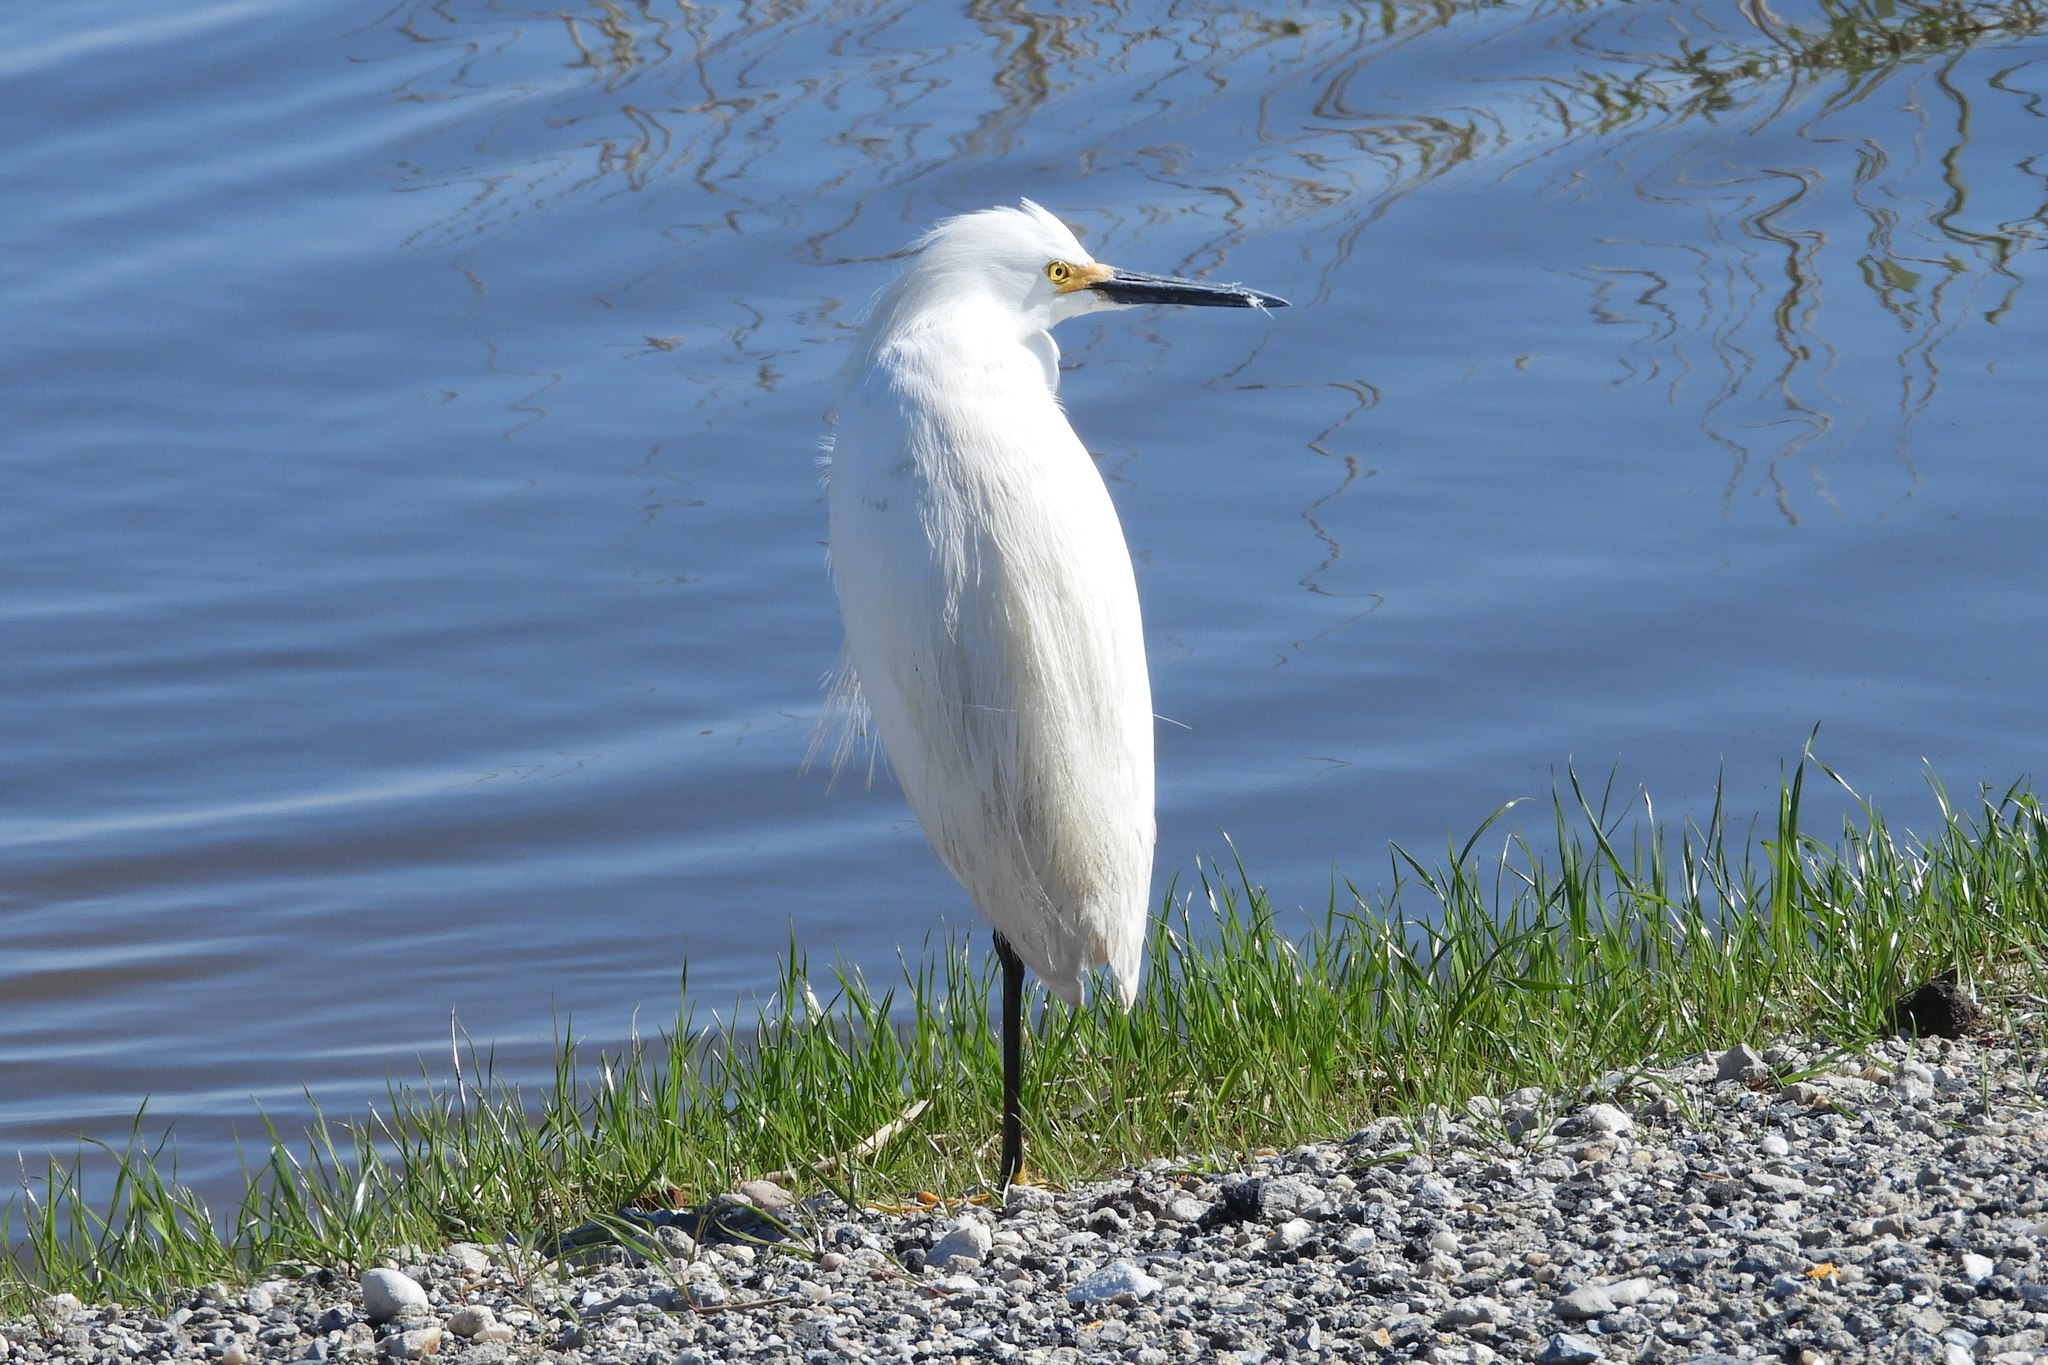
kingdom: Animalia
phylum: Chordata
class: Aves
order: Pelecaniformes
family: Ardeidae
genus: Egretta
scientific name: Egretta thula
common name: Snowy egret
